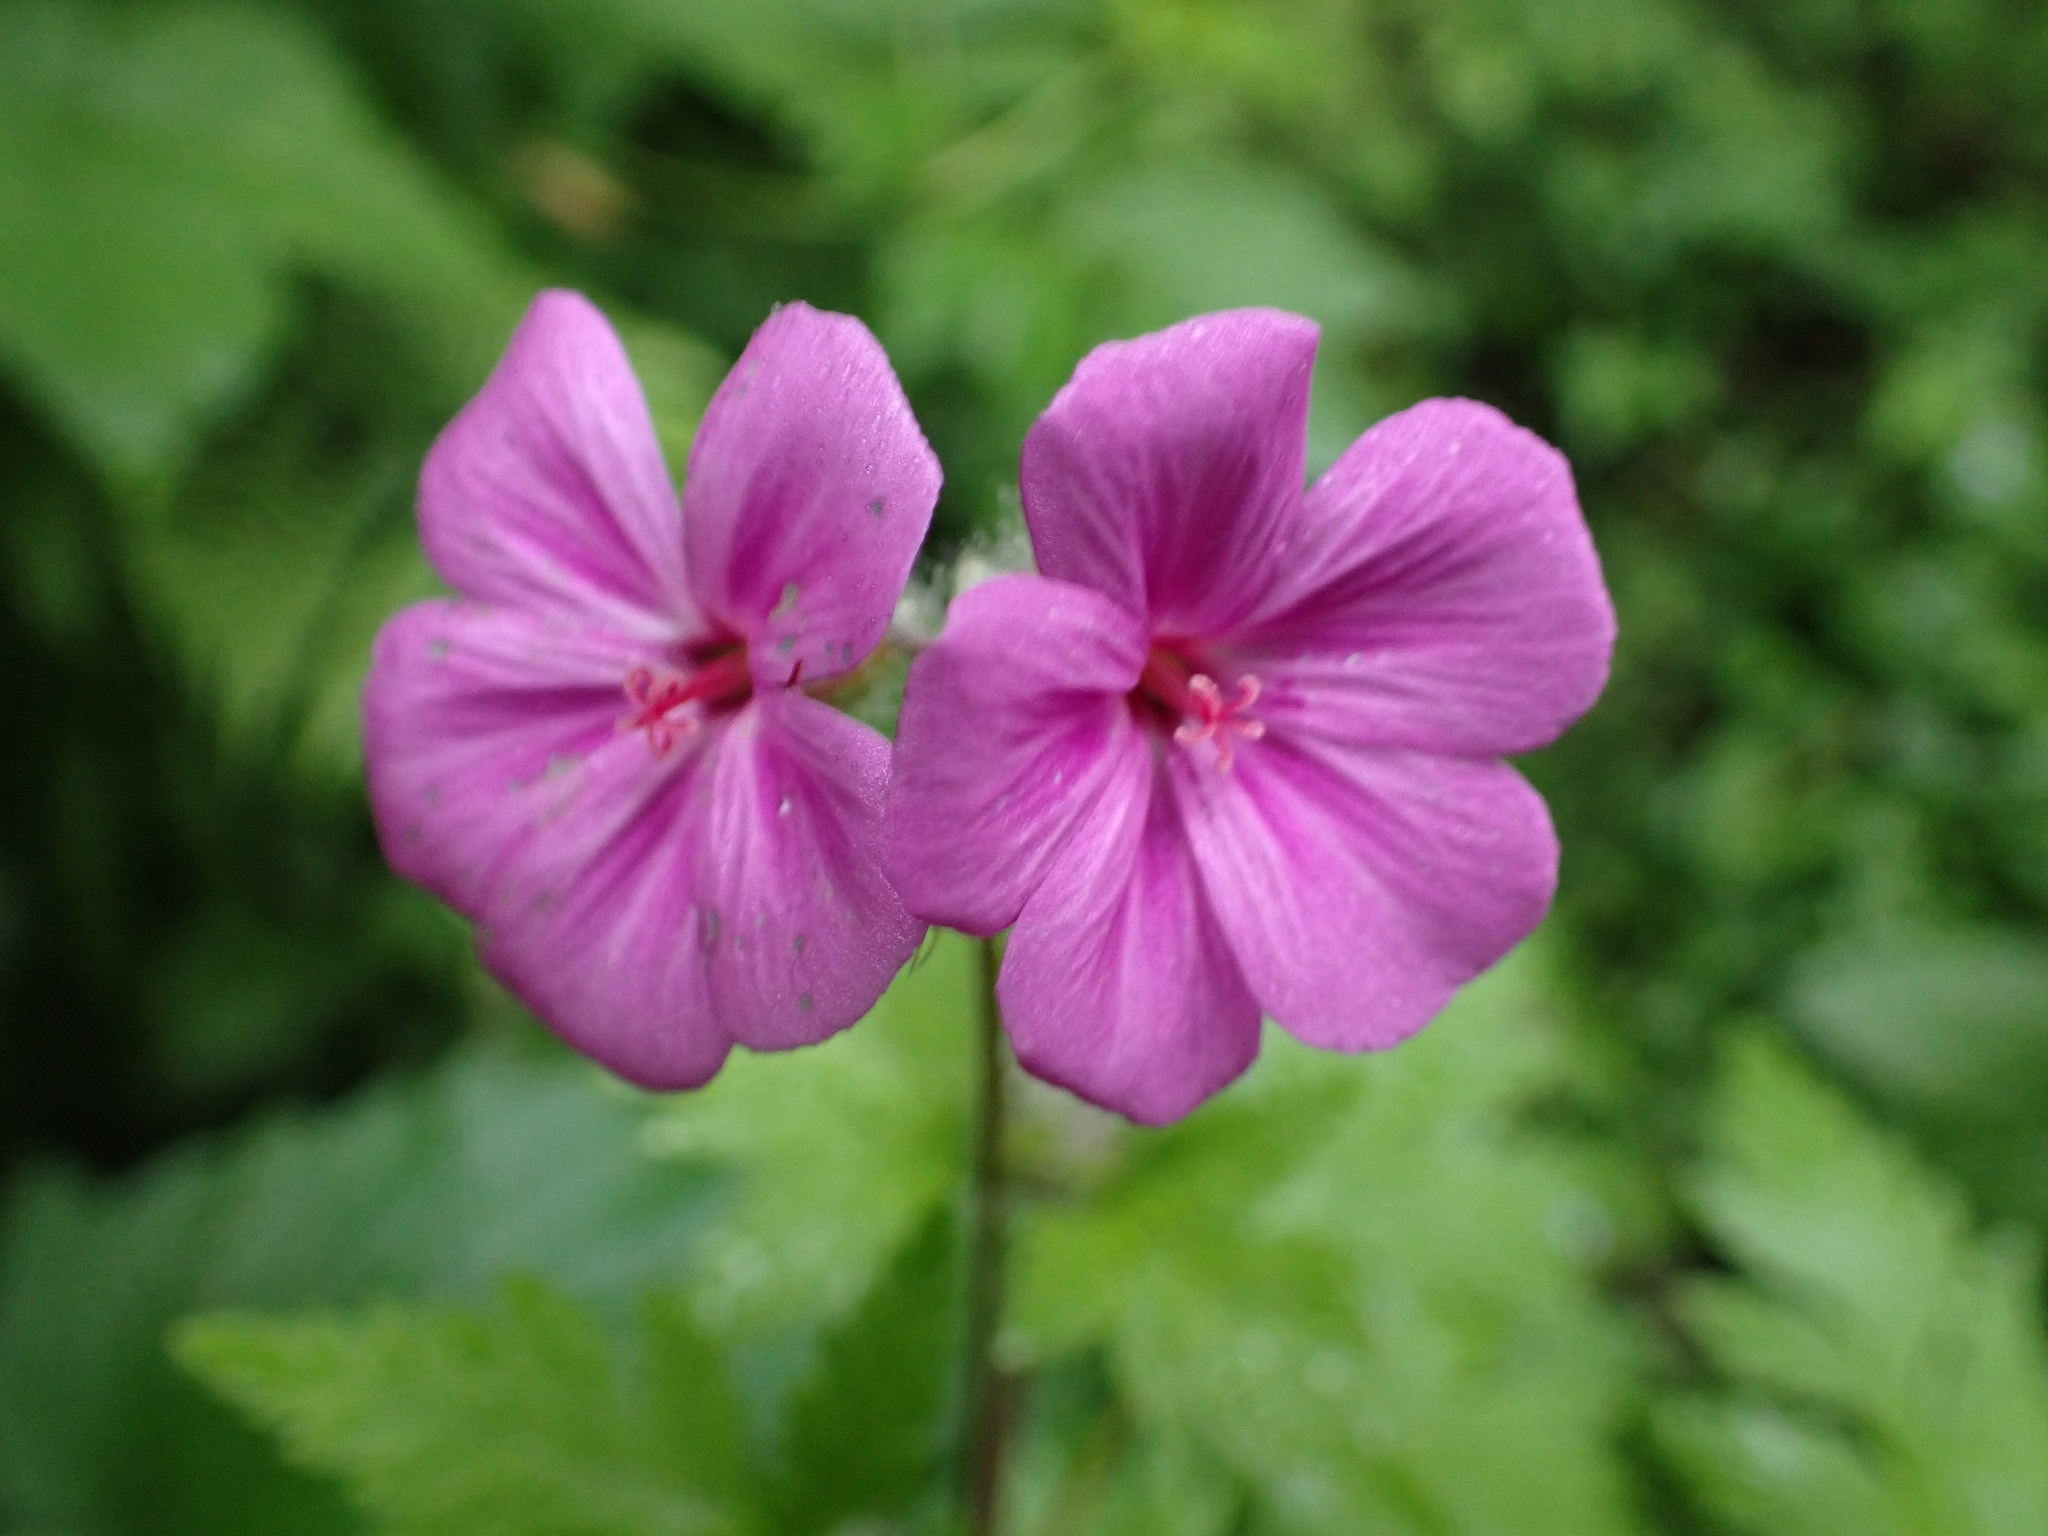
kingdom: Plantae
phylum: Tracheophyta
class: Magnoliopsida
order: Geraniales
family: Geraniaceae
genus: Geranium
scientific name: Geranium yeoi
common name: Greater herb robert
